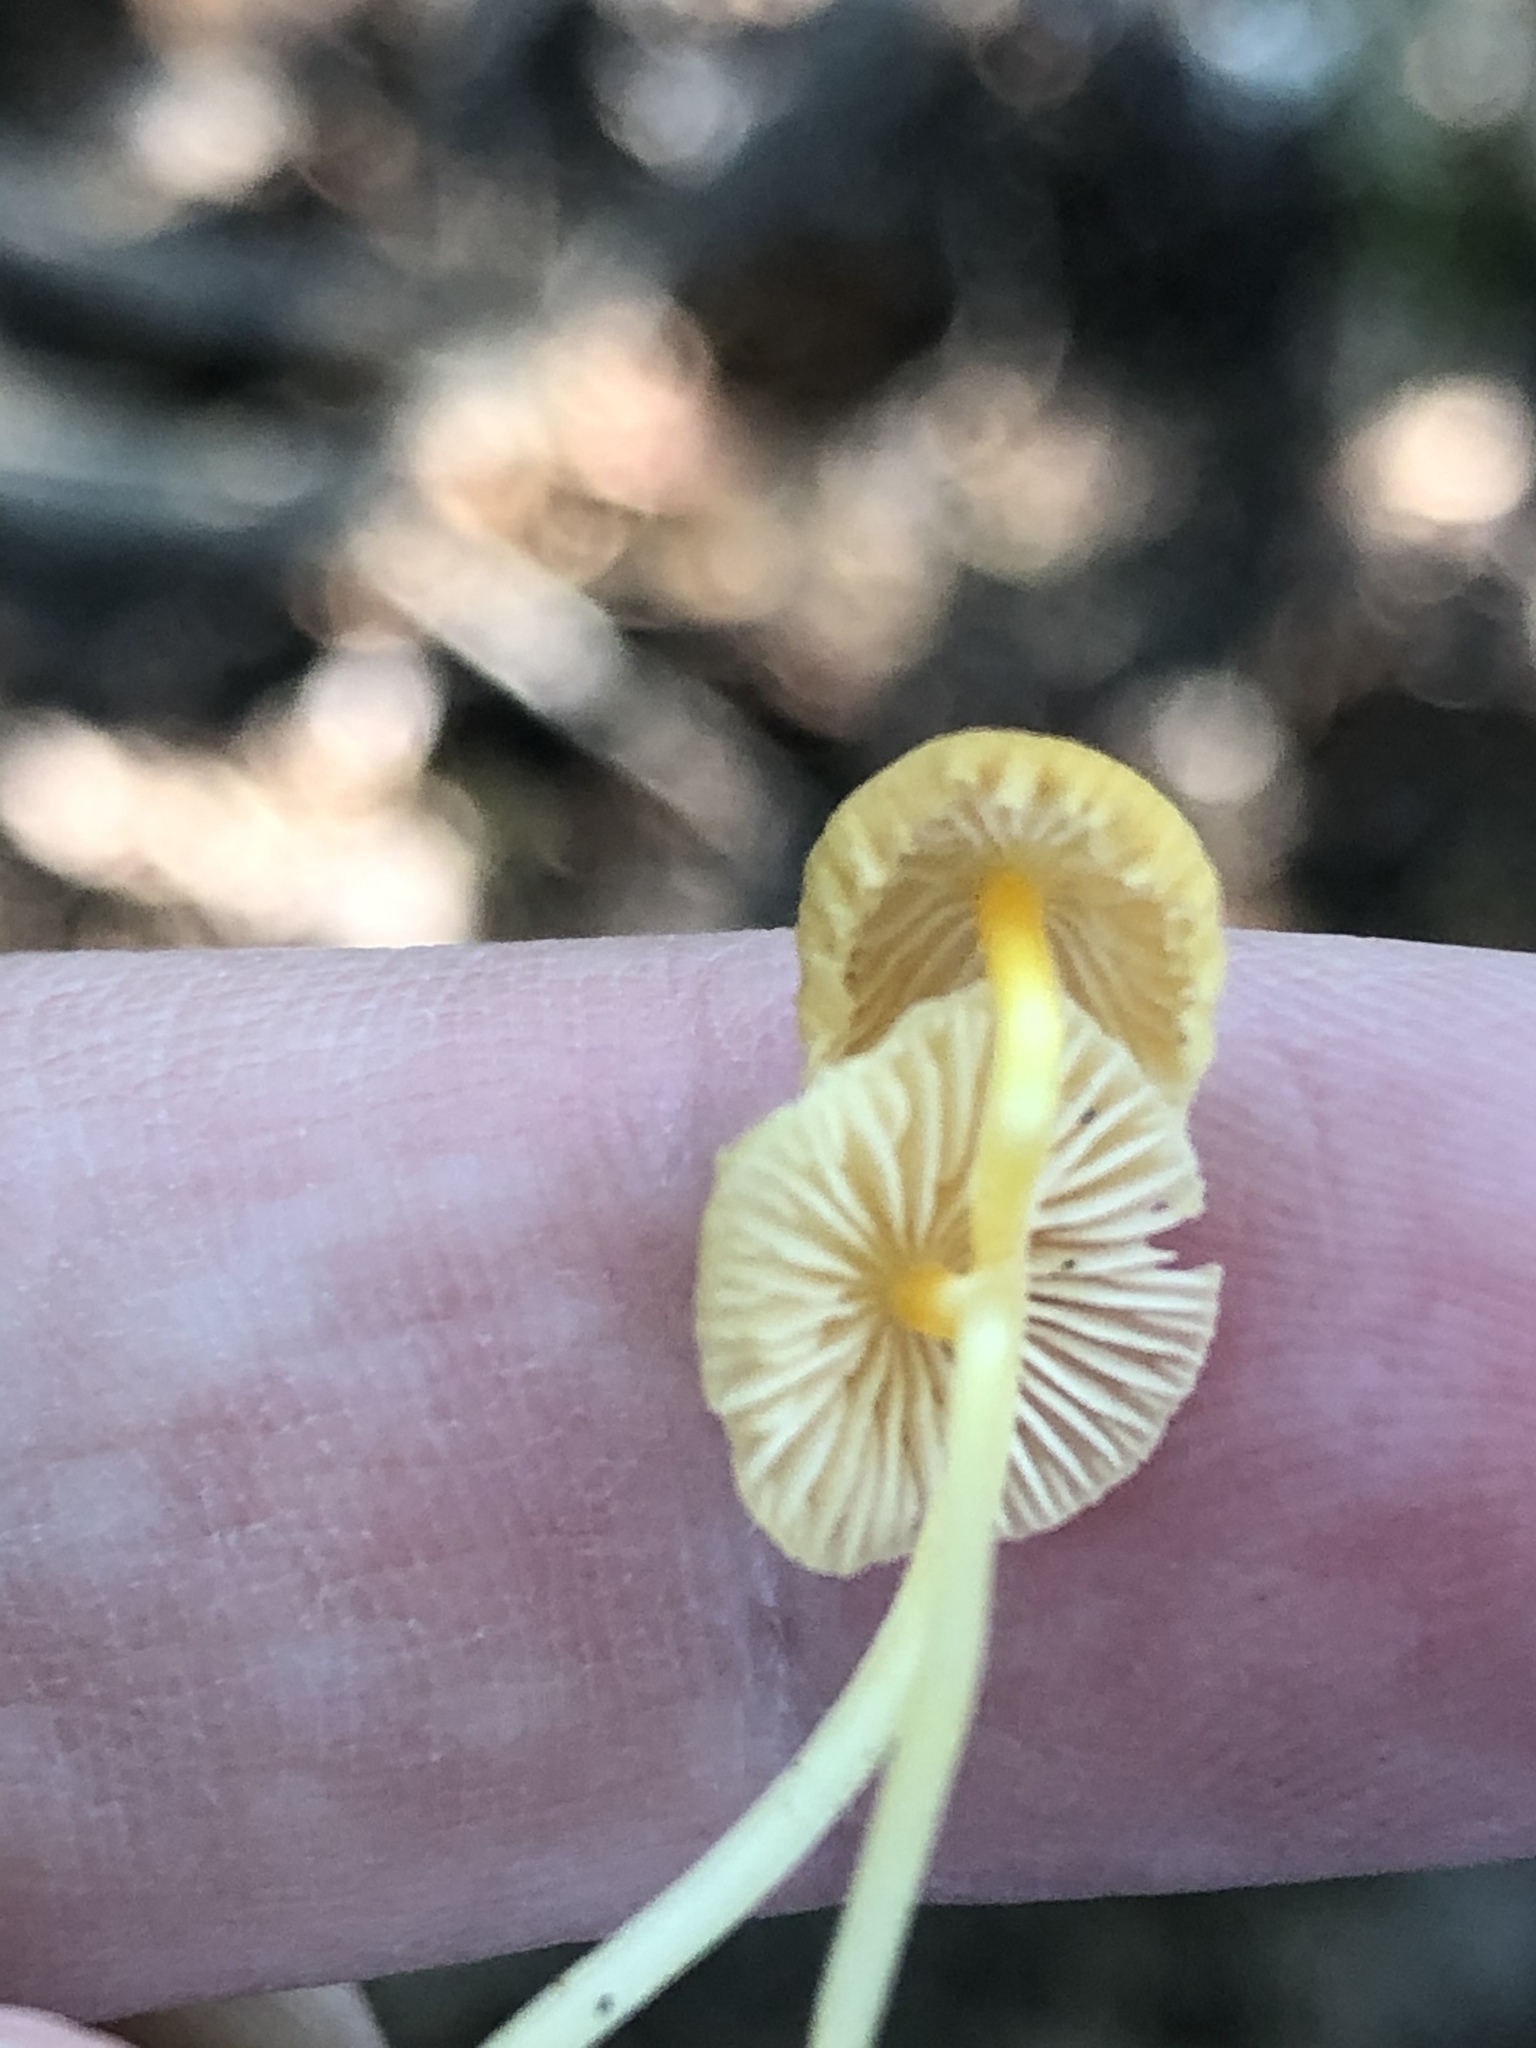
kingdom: Fungi
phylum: Basidiomycota
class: Agaricomycetes
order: Agaricales
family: Mycenaceae
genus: Mycena
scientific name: Mycena crocea
